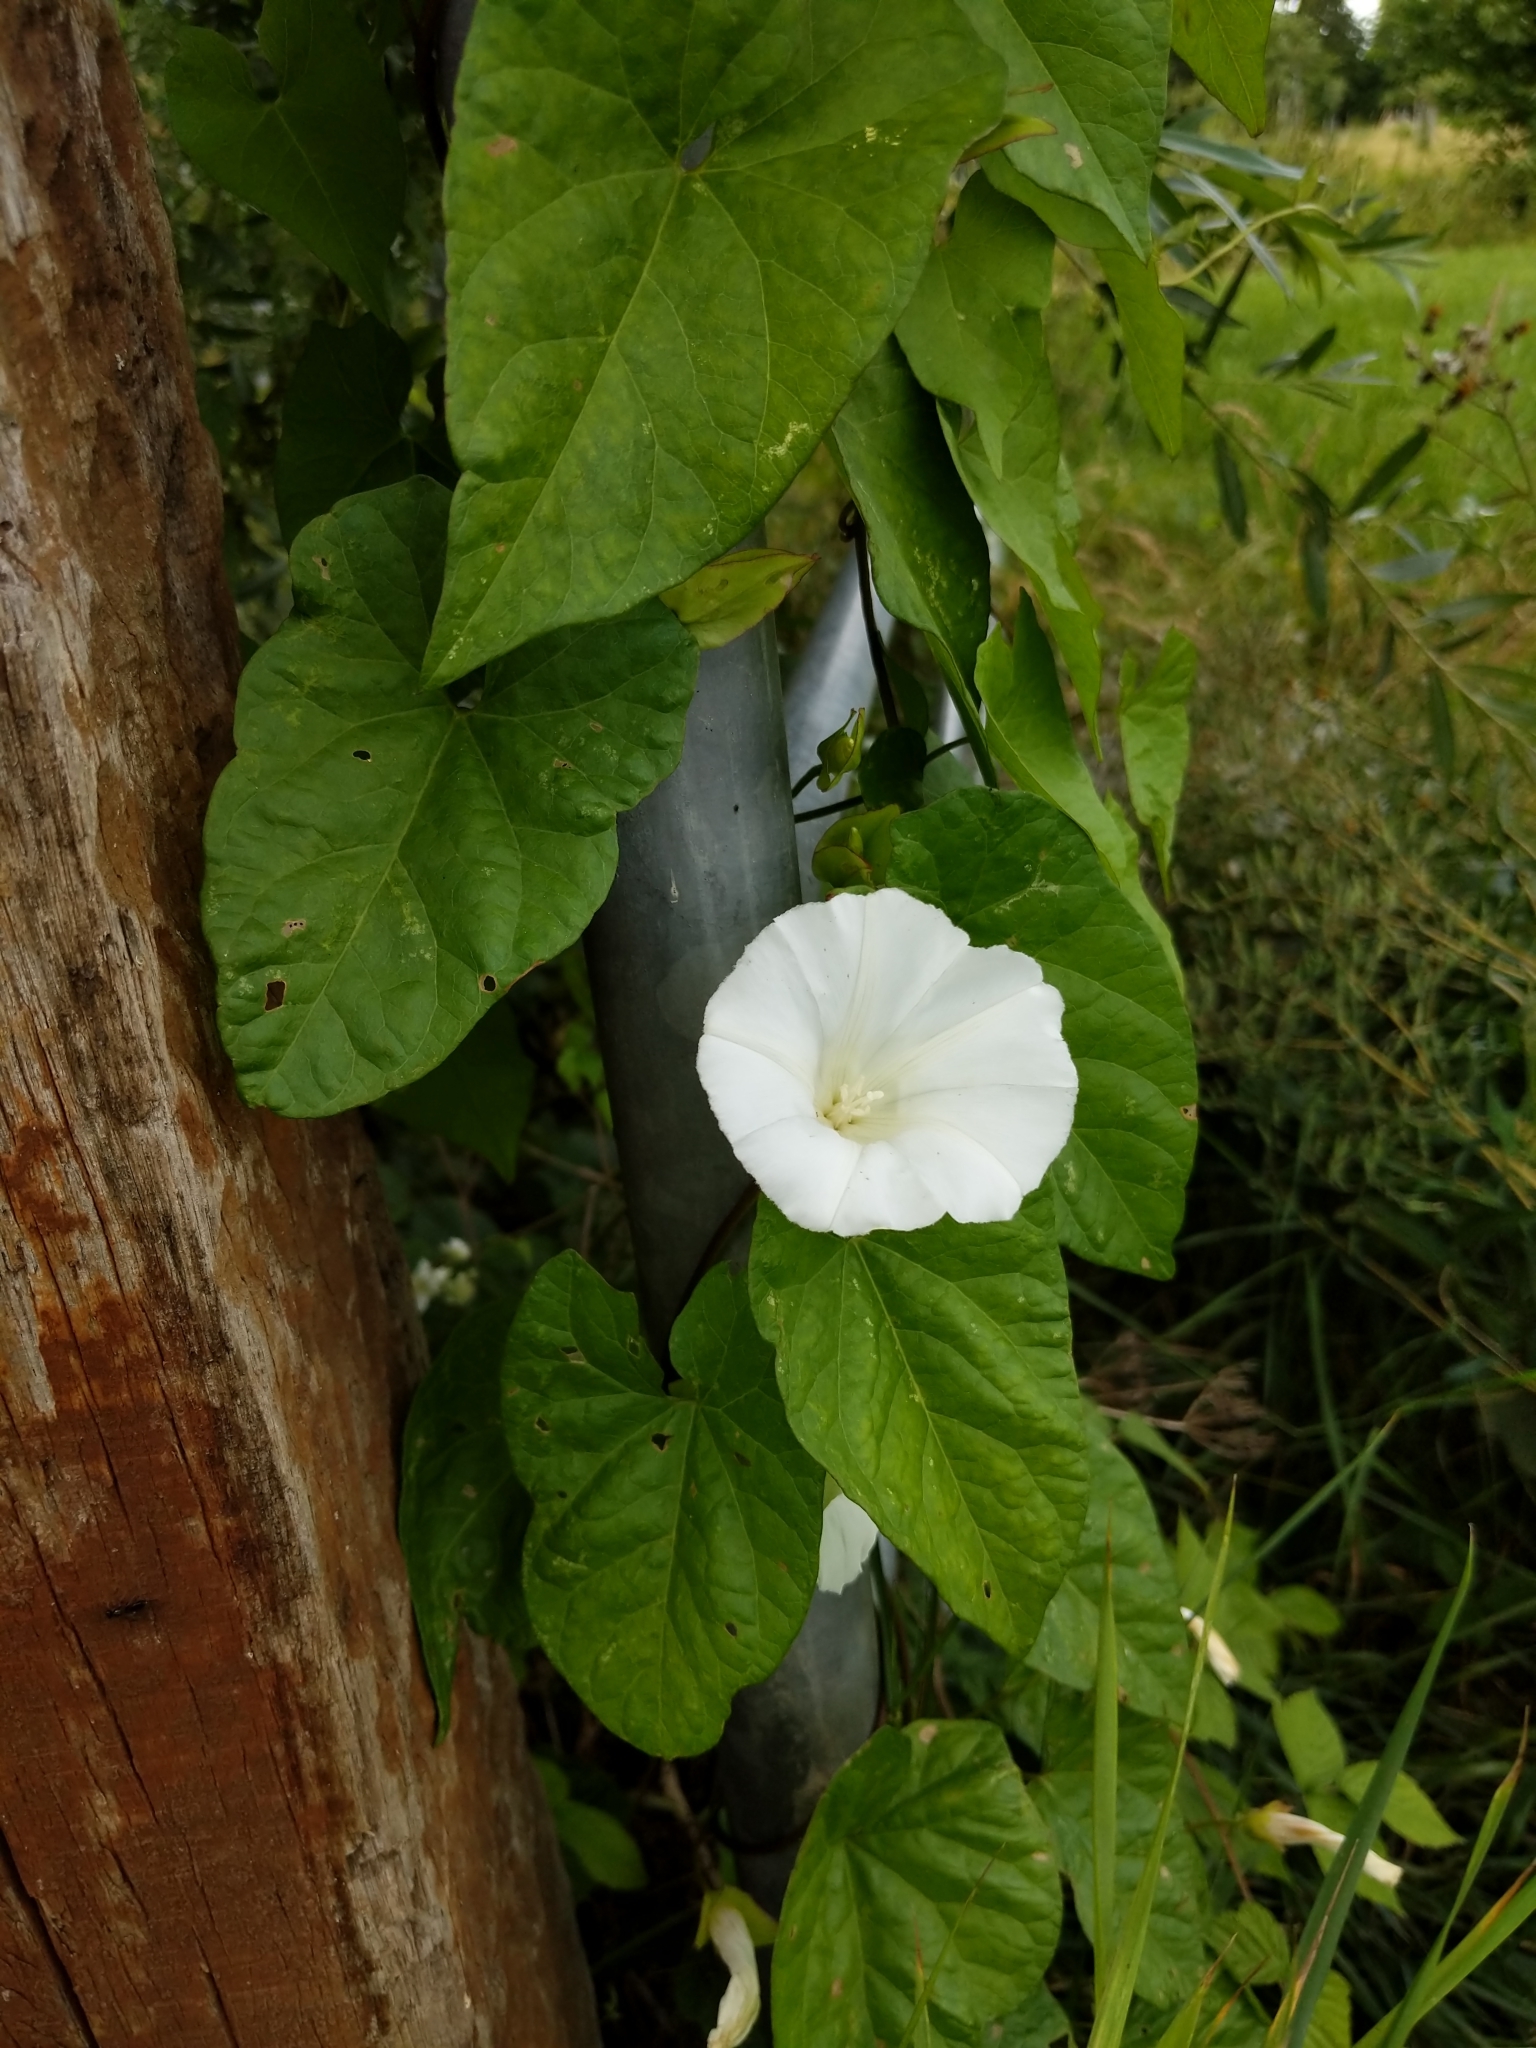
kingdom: Plantae
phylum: Tracheophyta
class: Magnoliopsida
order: Solanales
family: Convolvulaceae
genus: Calystegia
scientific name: Calystegia sepium
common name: Hedge bindweed
